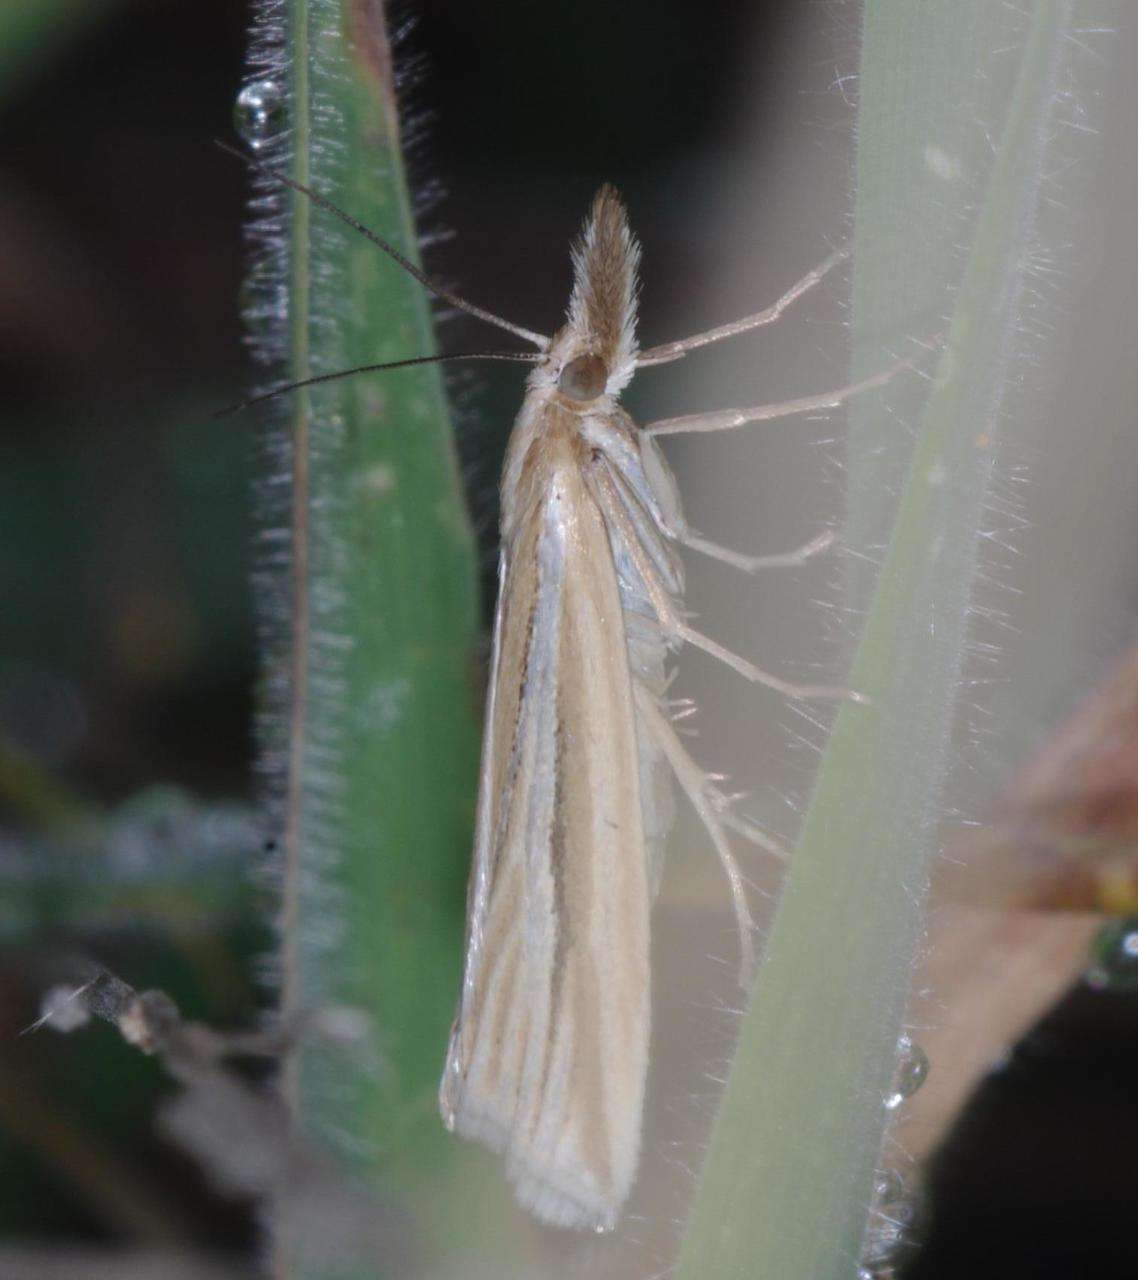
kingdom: Animalia
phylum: Arthropoda
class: Insecta
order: Lepidoptera
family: Crambidae
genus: Hednota
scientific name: Hednota grammellus
